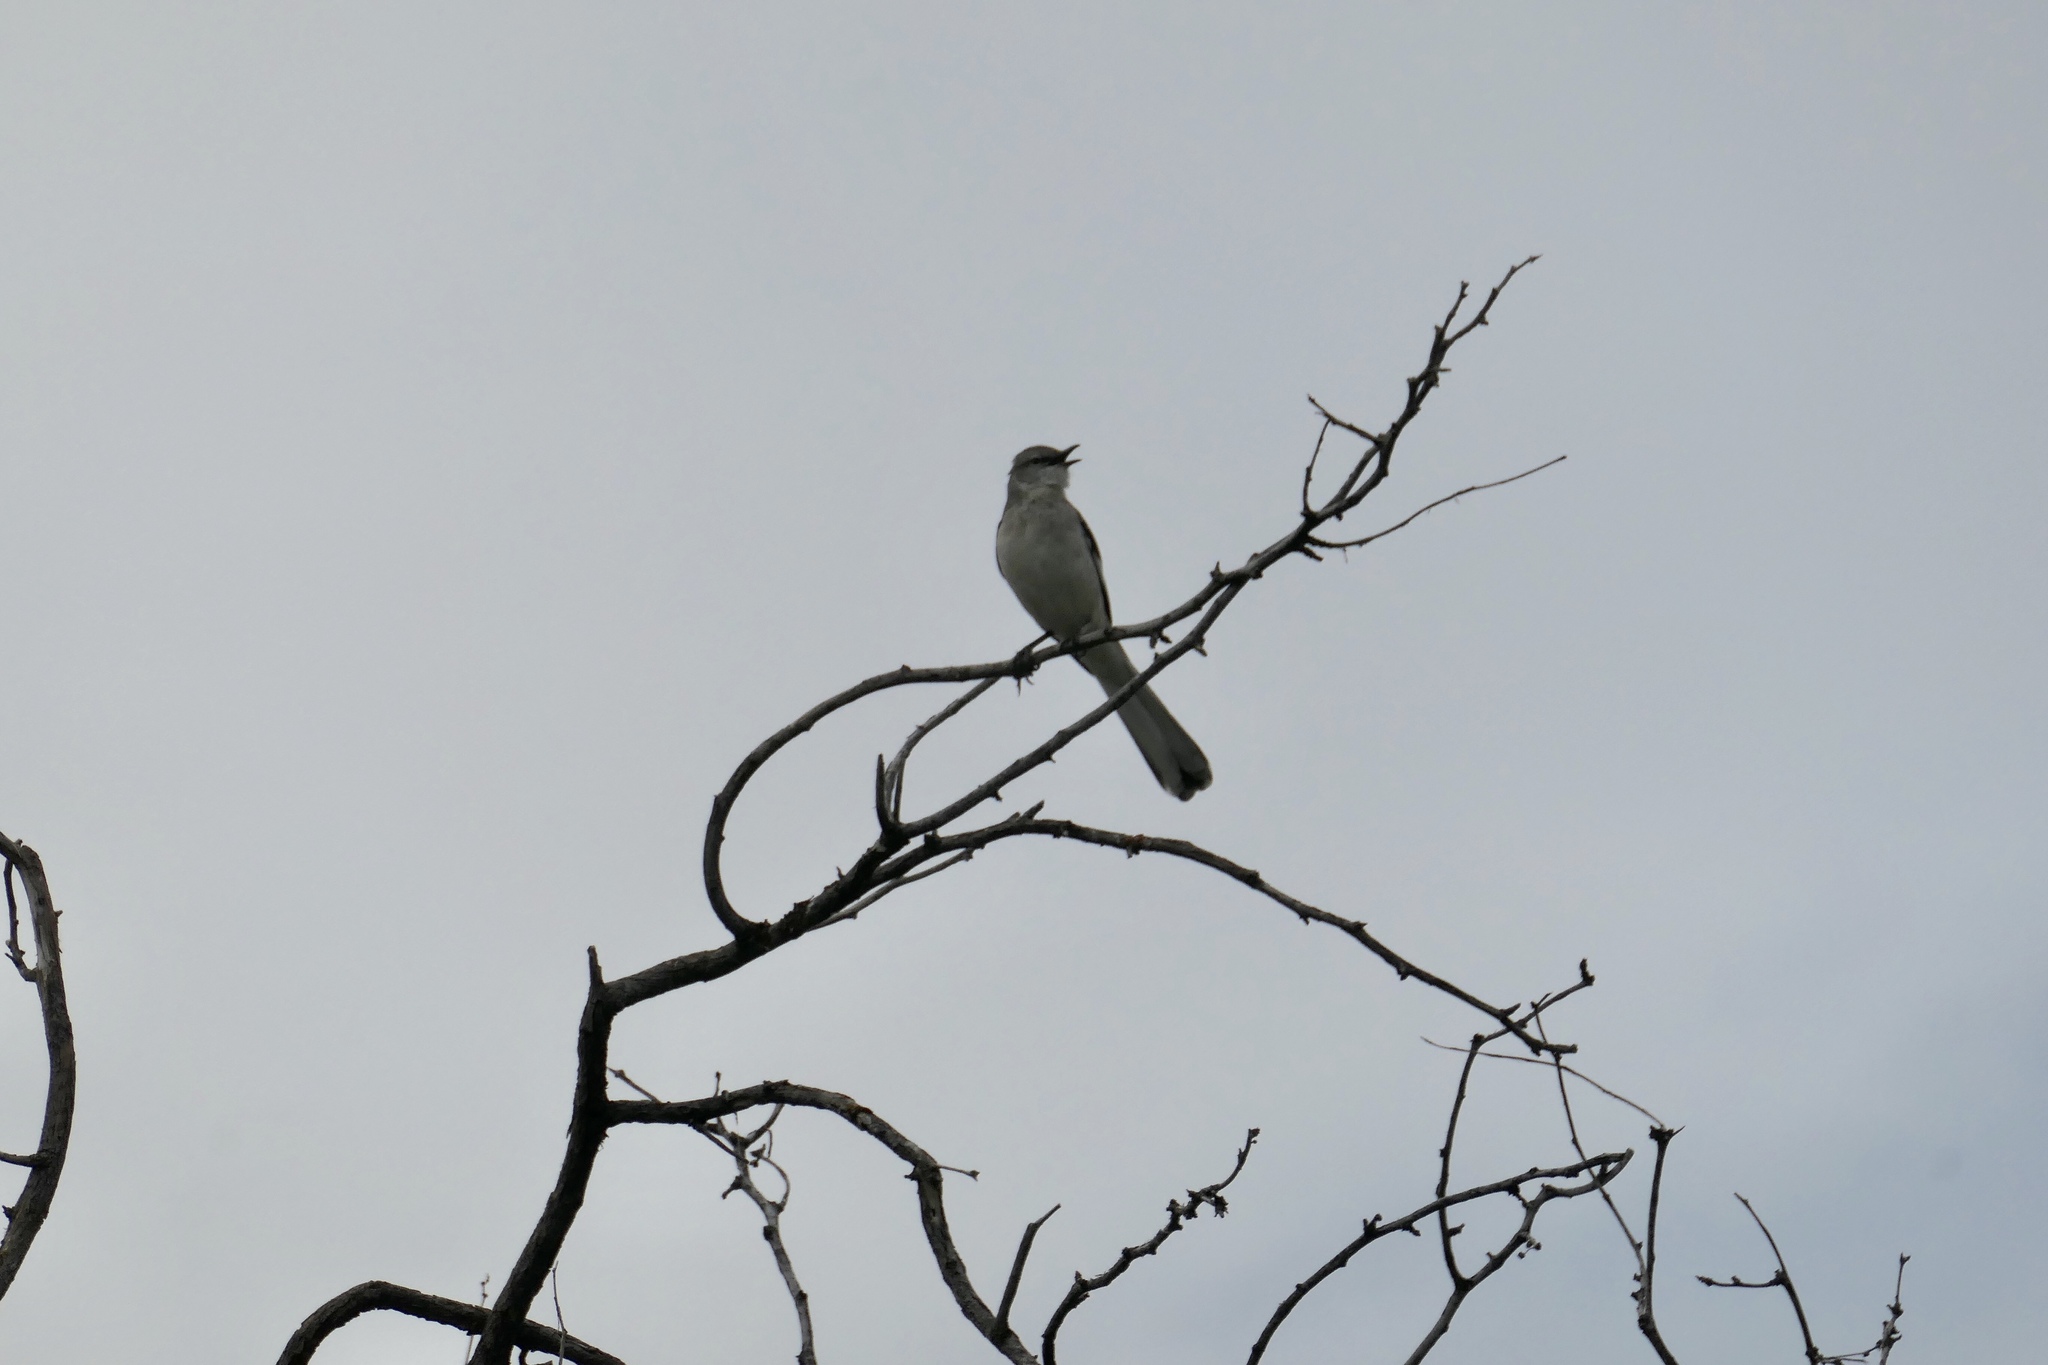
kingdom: Animalia
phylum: Chordata
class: Aves
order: Passeriformes
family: Mimidae
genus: Mimus
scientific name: Mimus polyglottos
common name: Northern mockingbird
